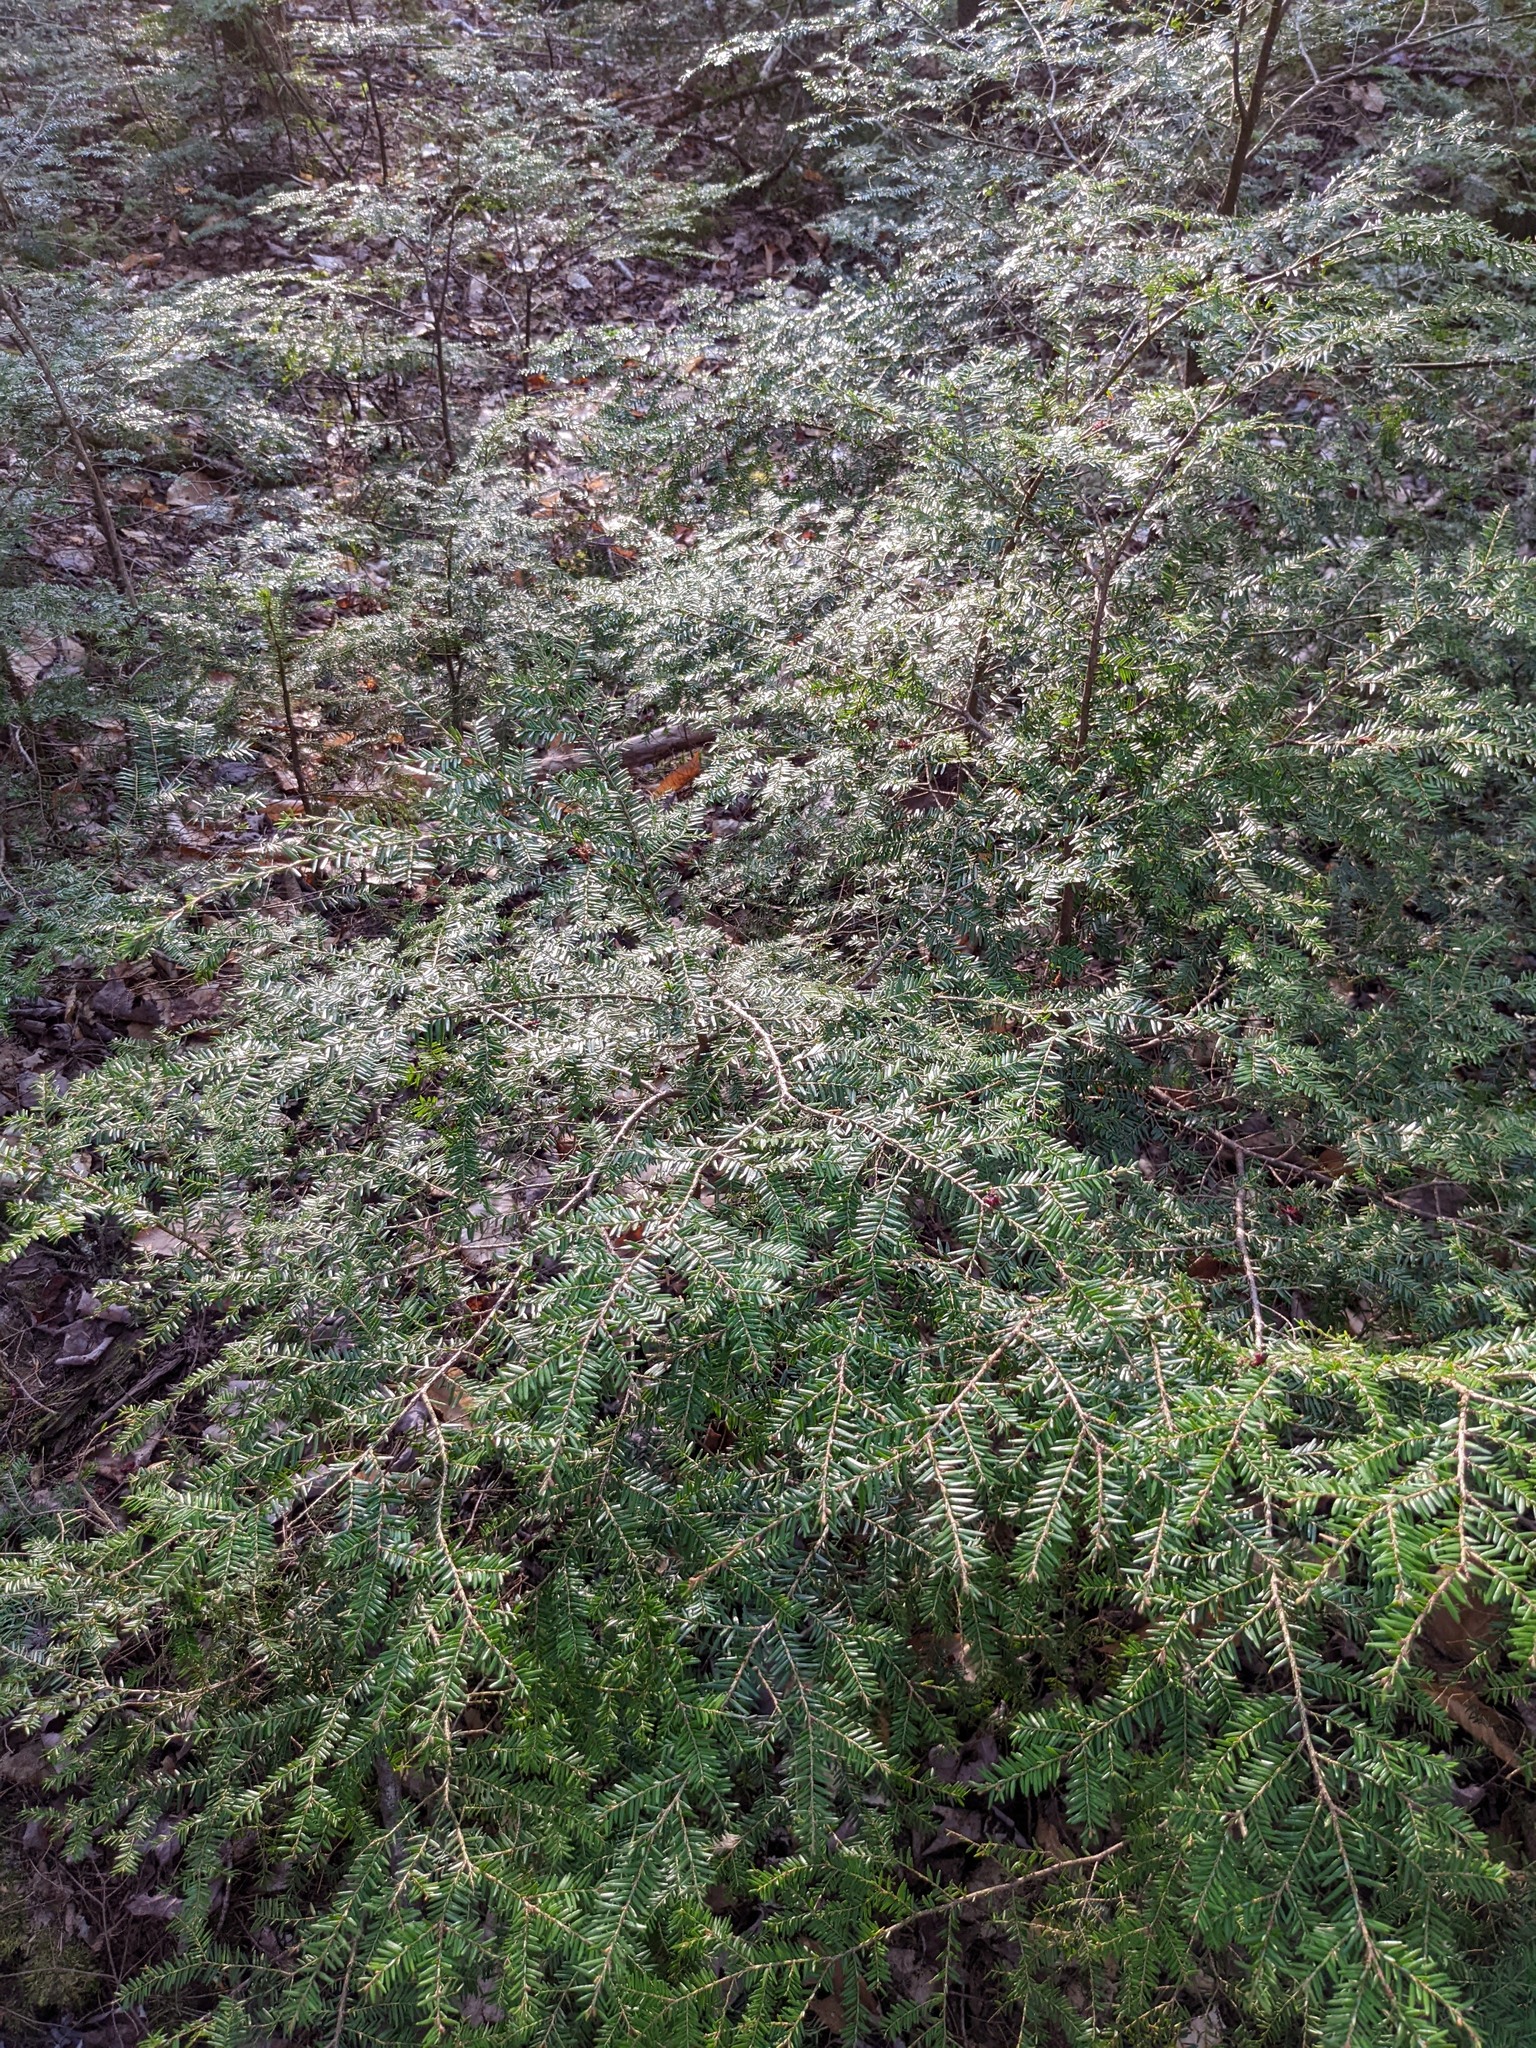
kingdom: Plantae
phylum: Tracheophyta
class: Pinopsida
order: Pinales
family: Pinaceae
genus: Tsuga
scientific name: Tsuga canadensis
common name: Eastern hemlock
